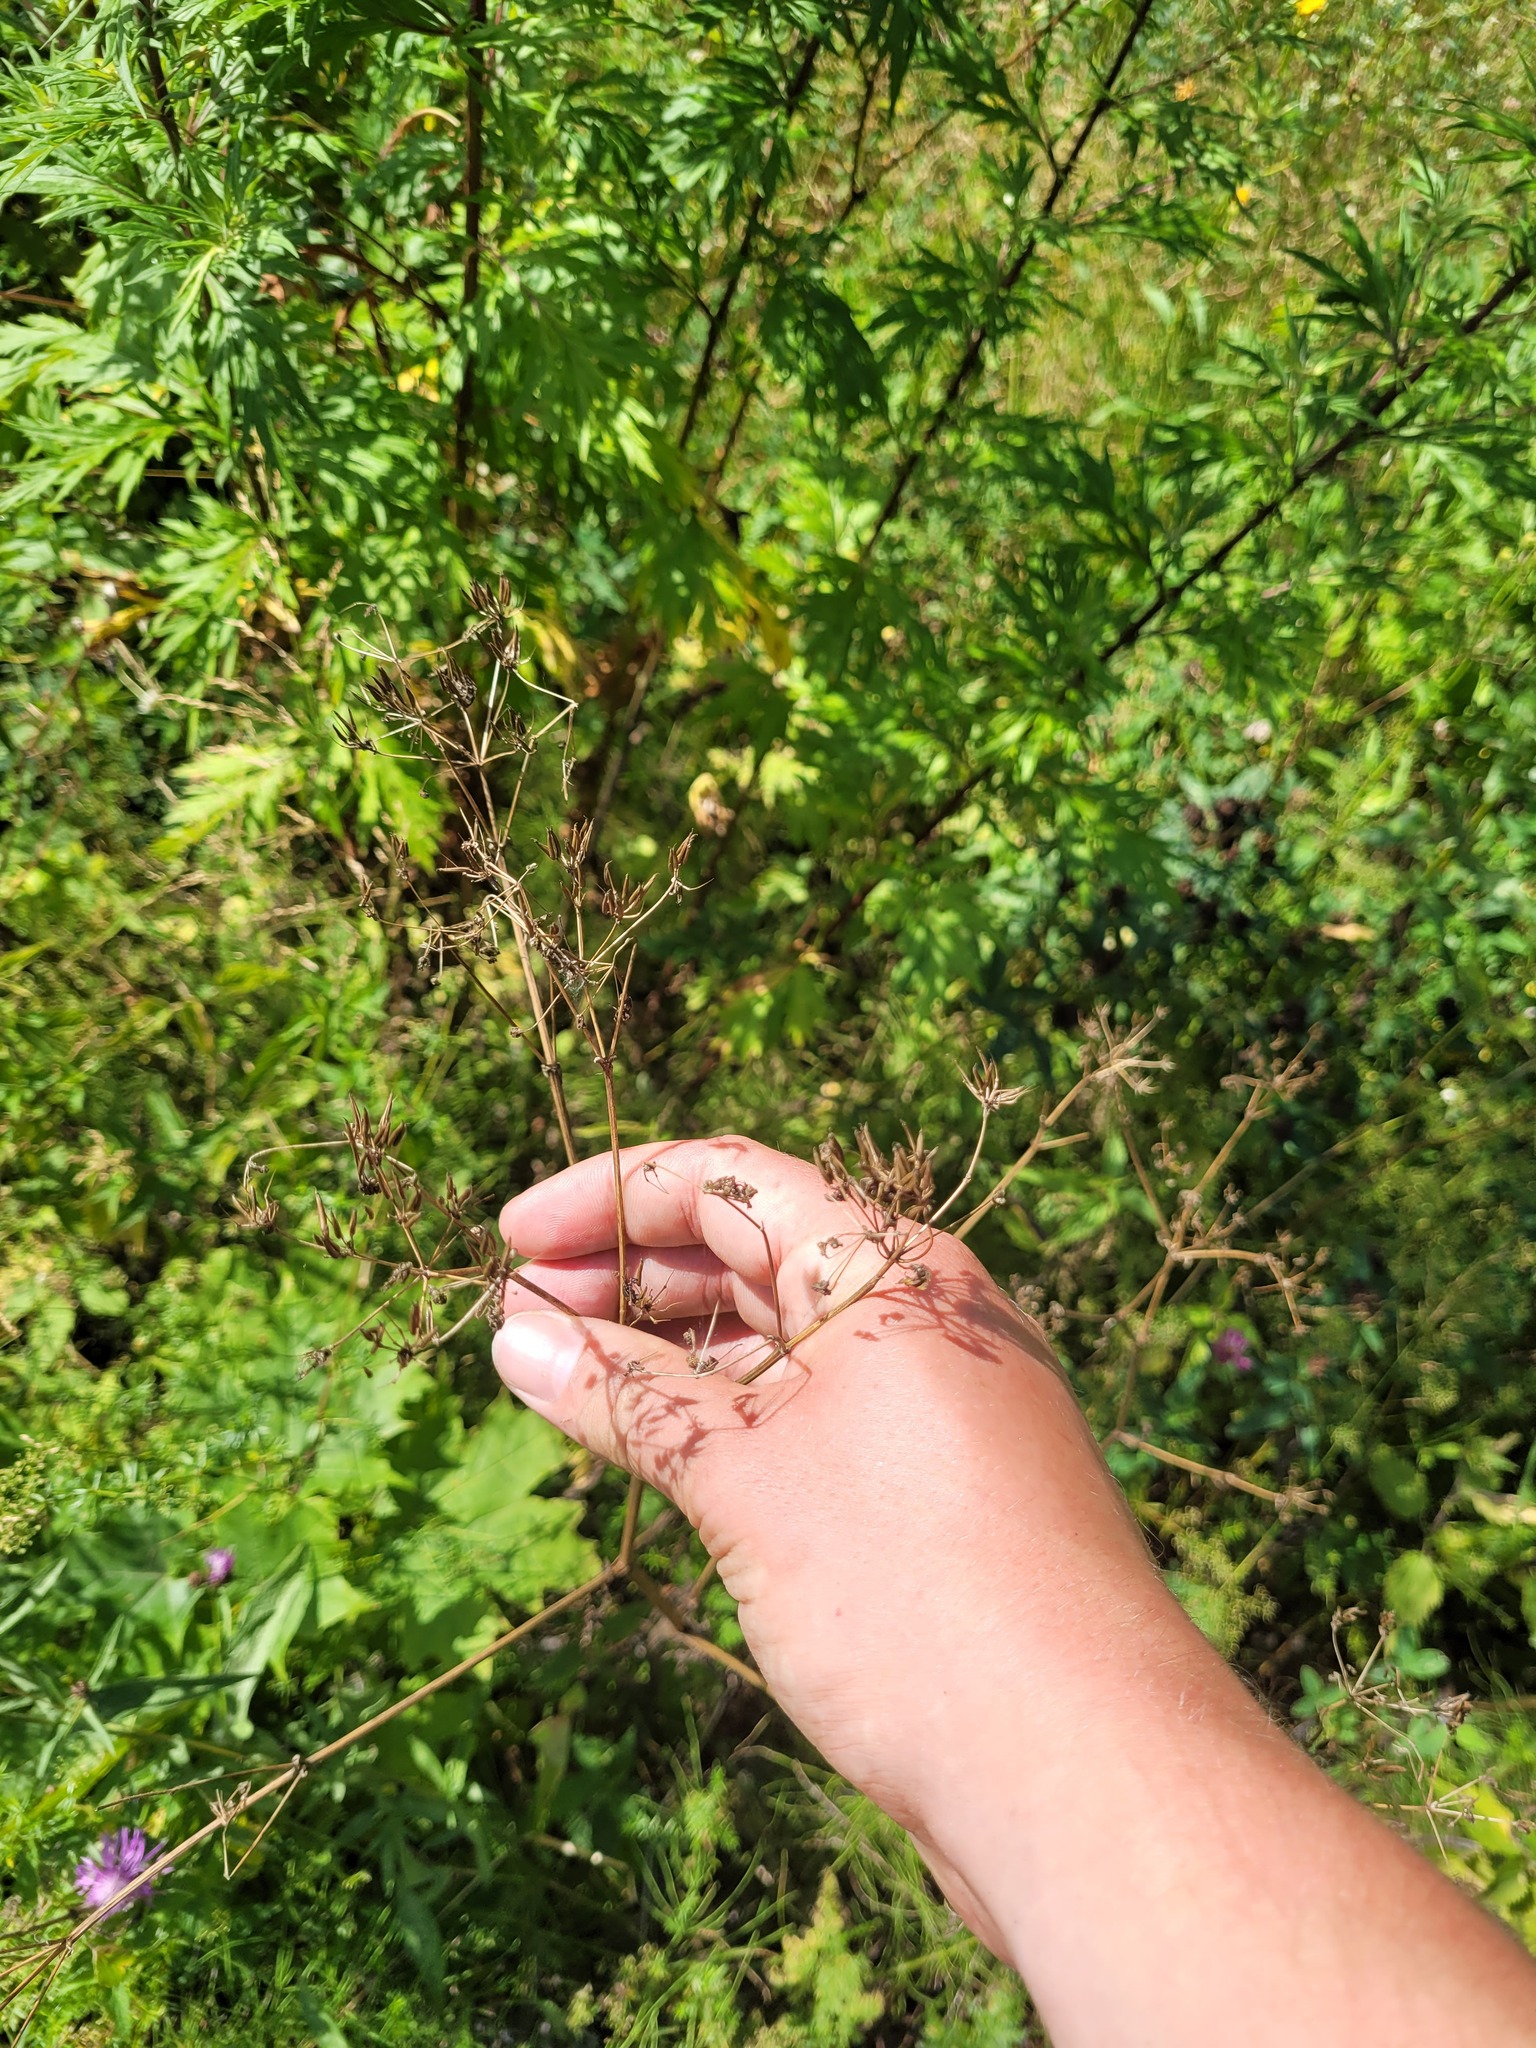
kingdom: Plantae
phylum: Tracheophyta
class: Magnoliopsida
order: Apiales
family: Apiaceae
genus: Anthriscus
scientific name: Anthriscus sylvestris
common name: Cow parsley
